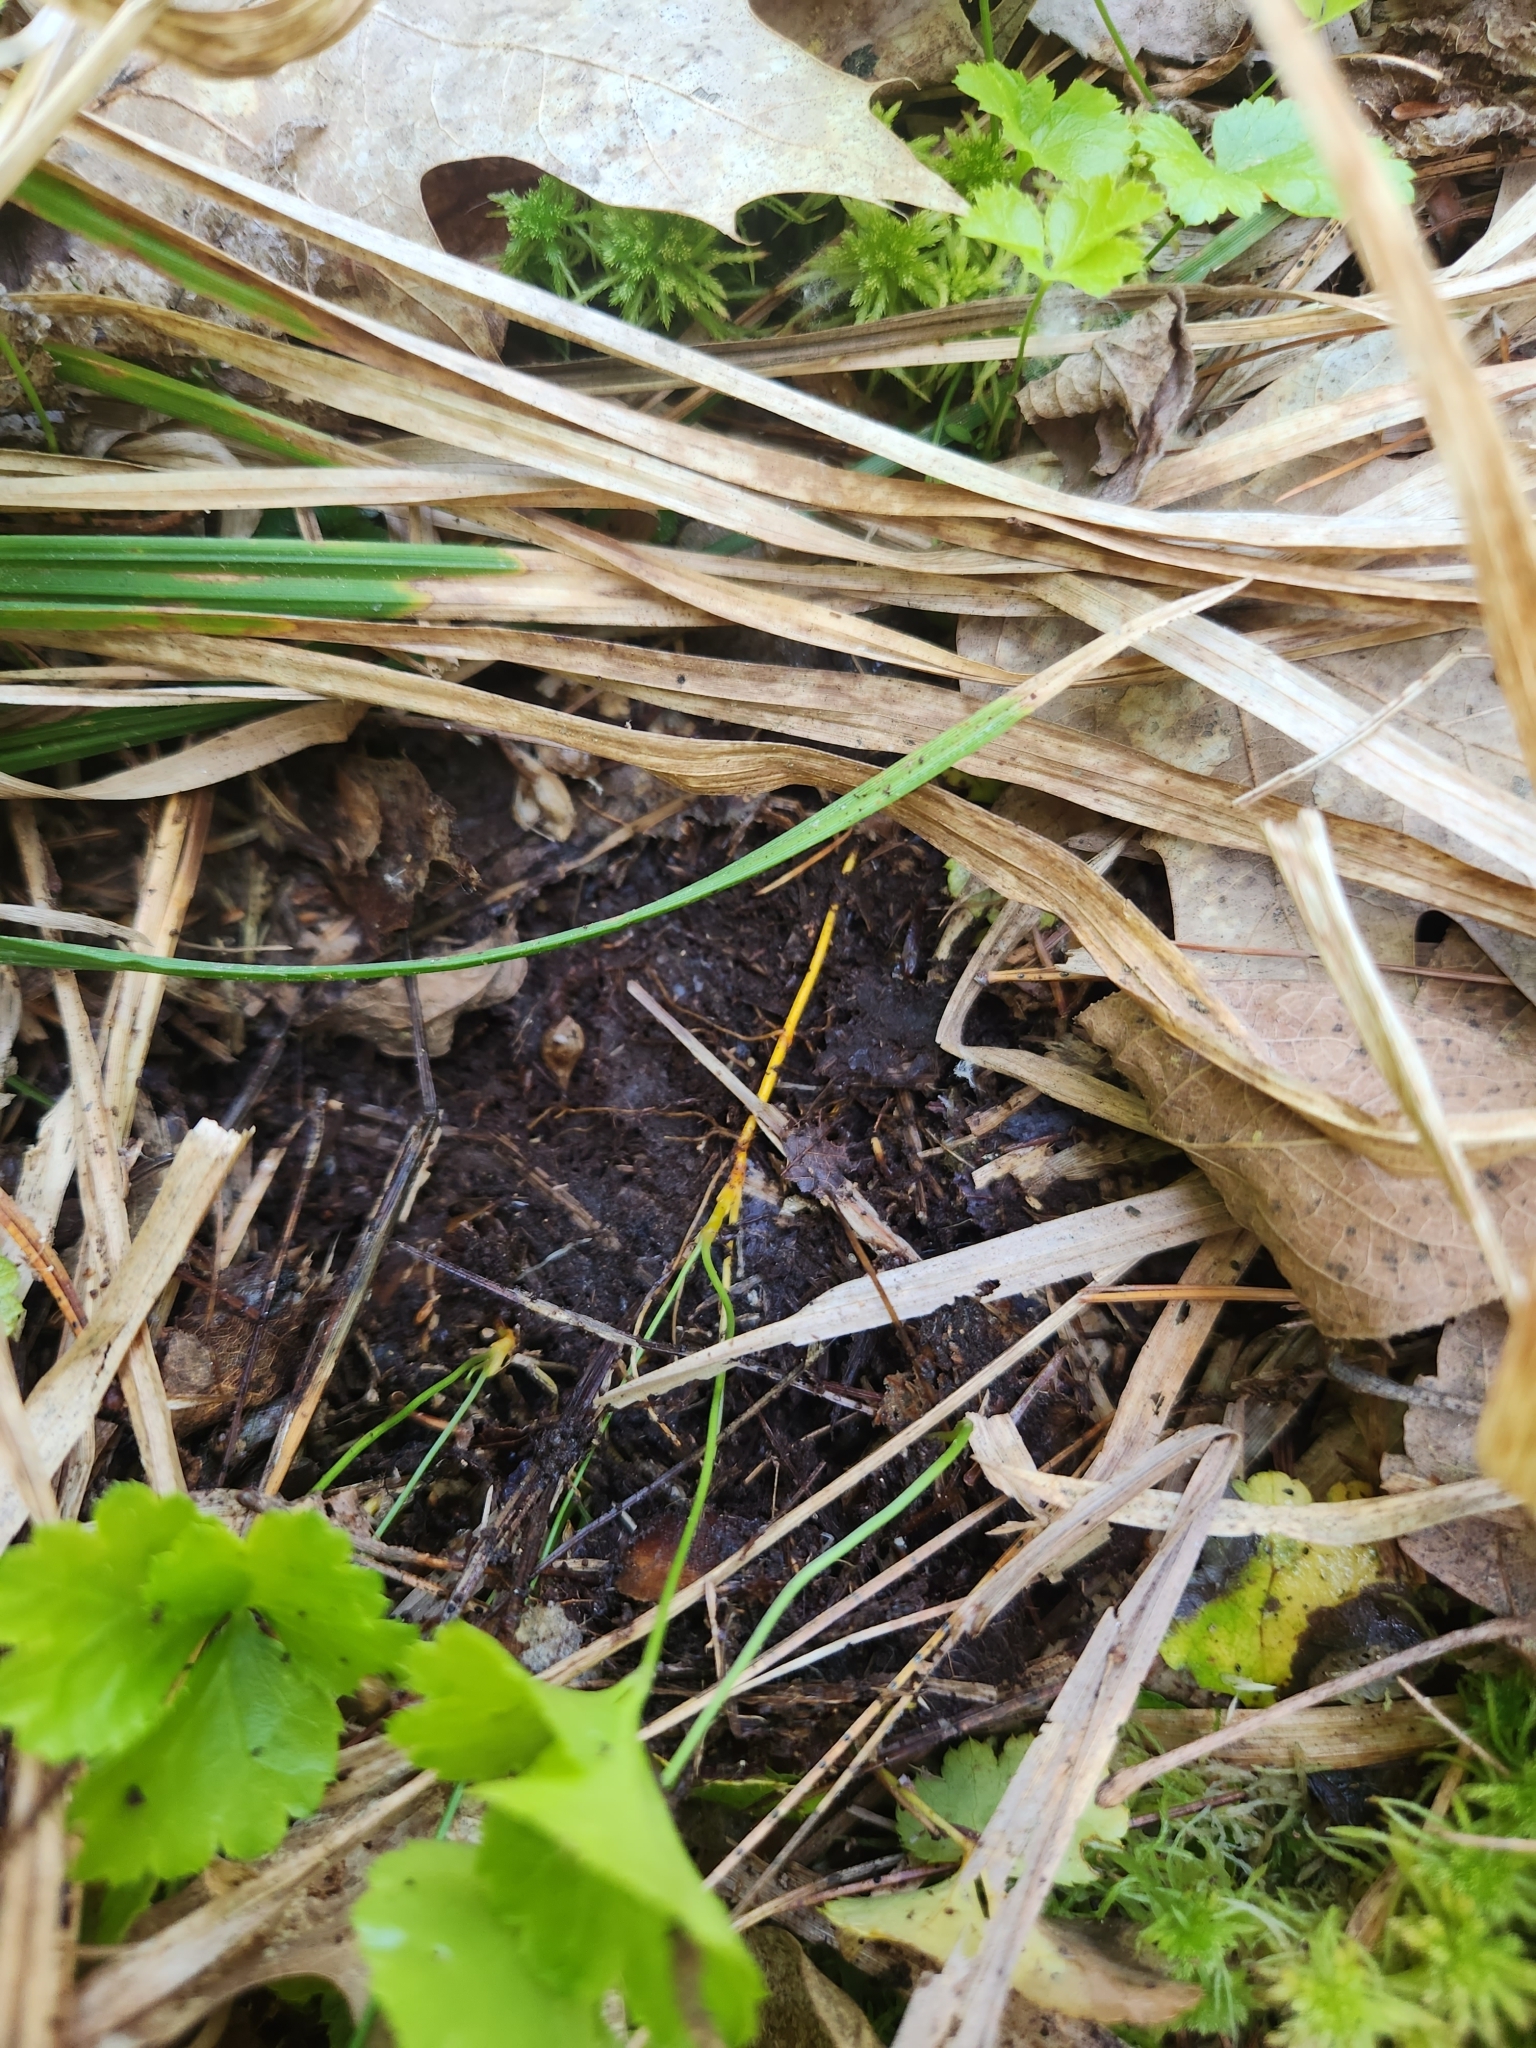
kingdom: Plantae
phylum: Tracheophyta
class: Magnoliopsida
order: Ranunculales
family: Ranunculaceae
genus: Coptis
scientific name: Coptis trifolia
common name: Canker-root
